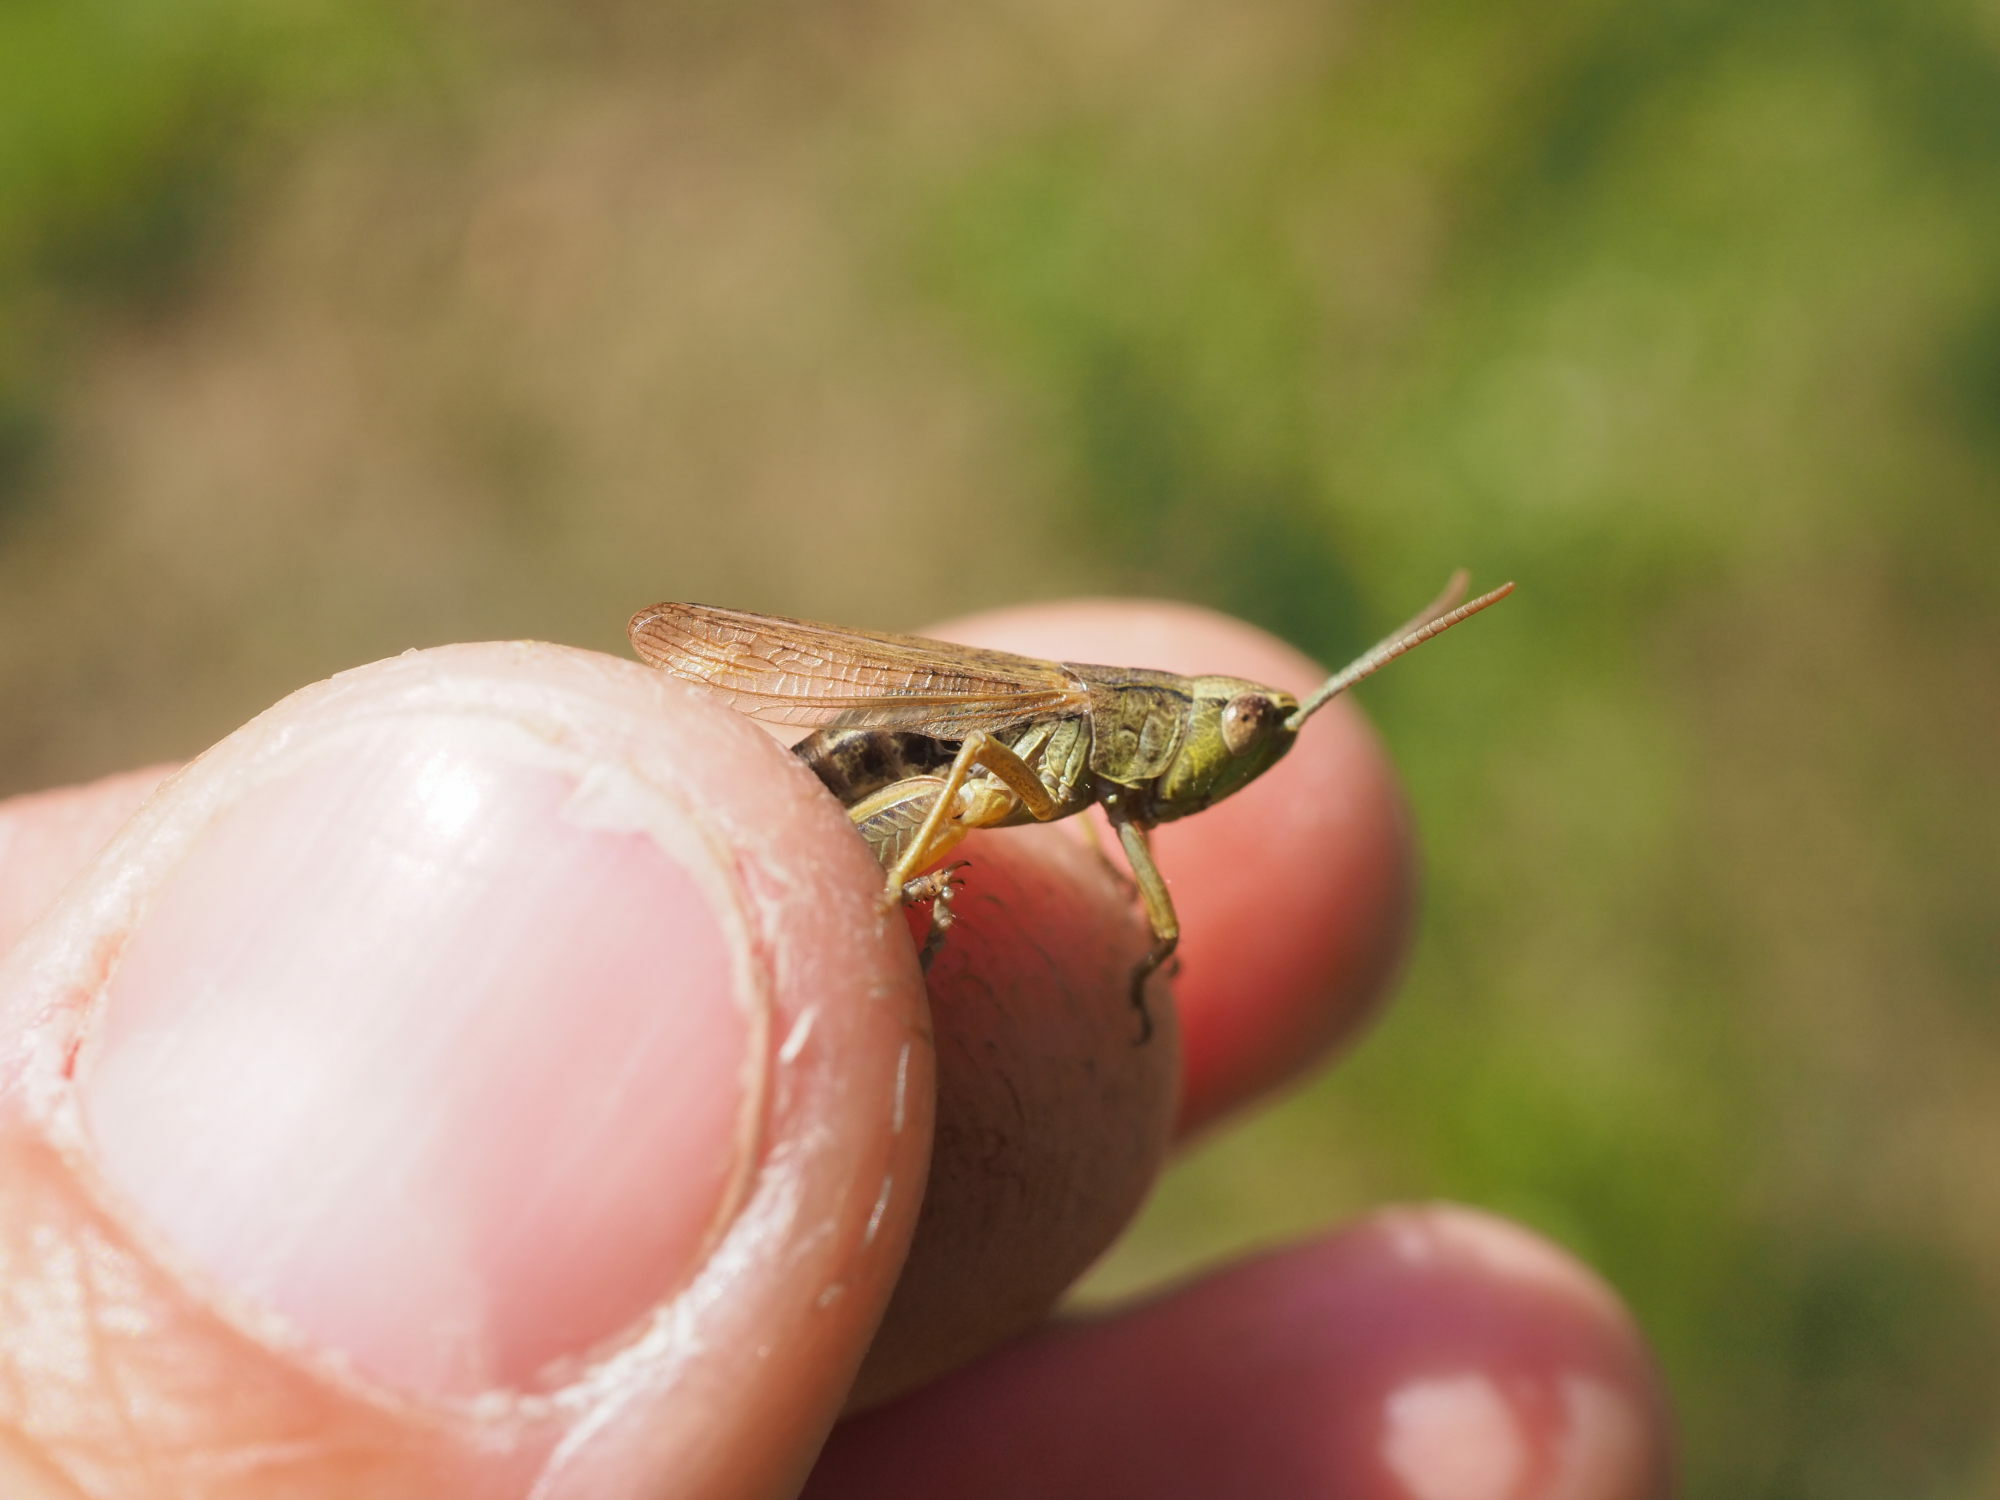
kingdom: Animalia
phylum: Arthropoda
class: Insecta
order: Orthoptera
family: Acrididae
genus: Pseudochorthippus
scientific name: Pseudochorthippus parallelus
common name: Meadow grasshopper
